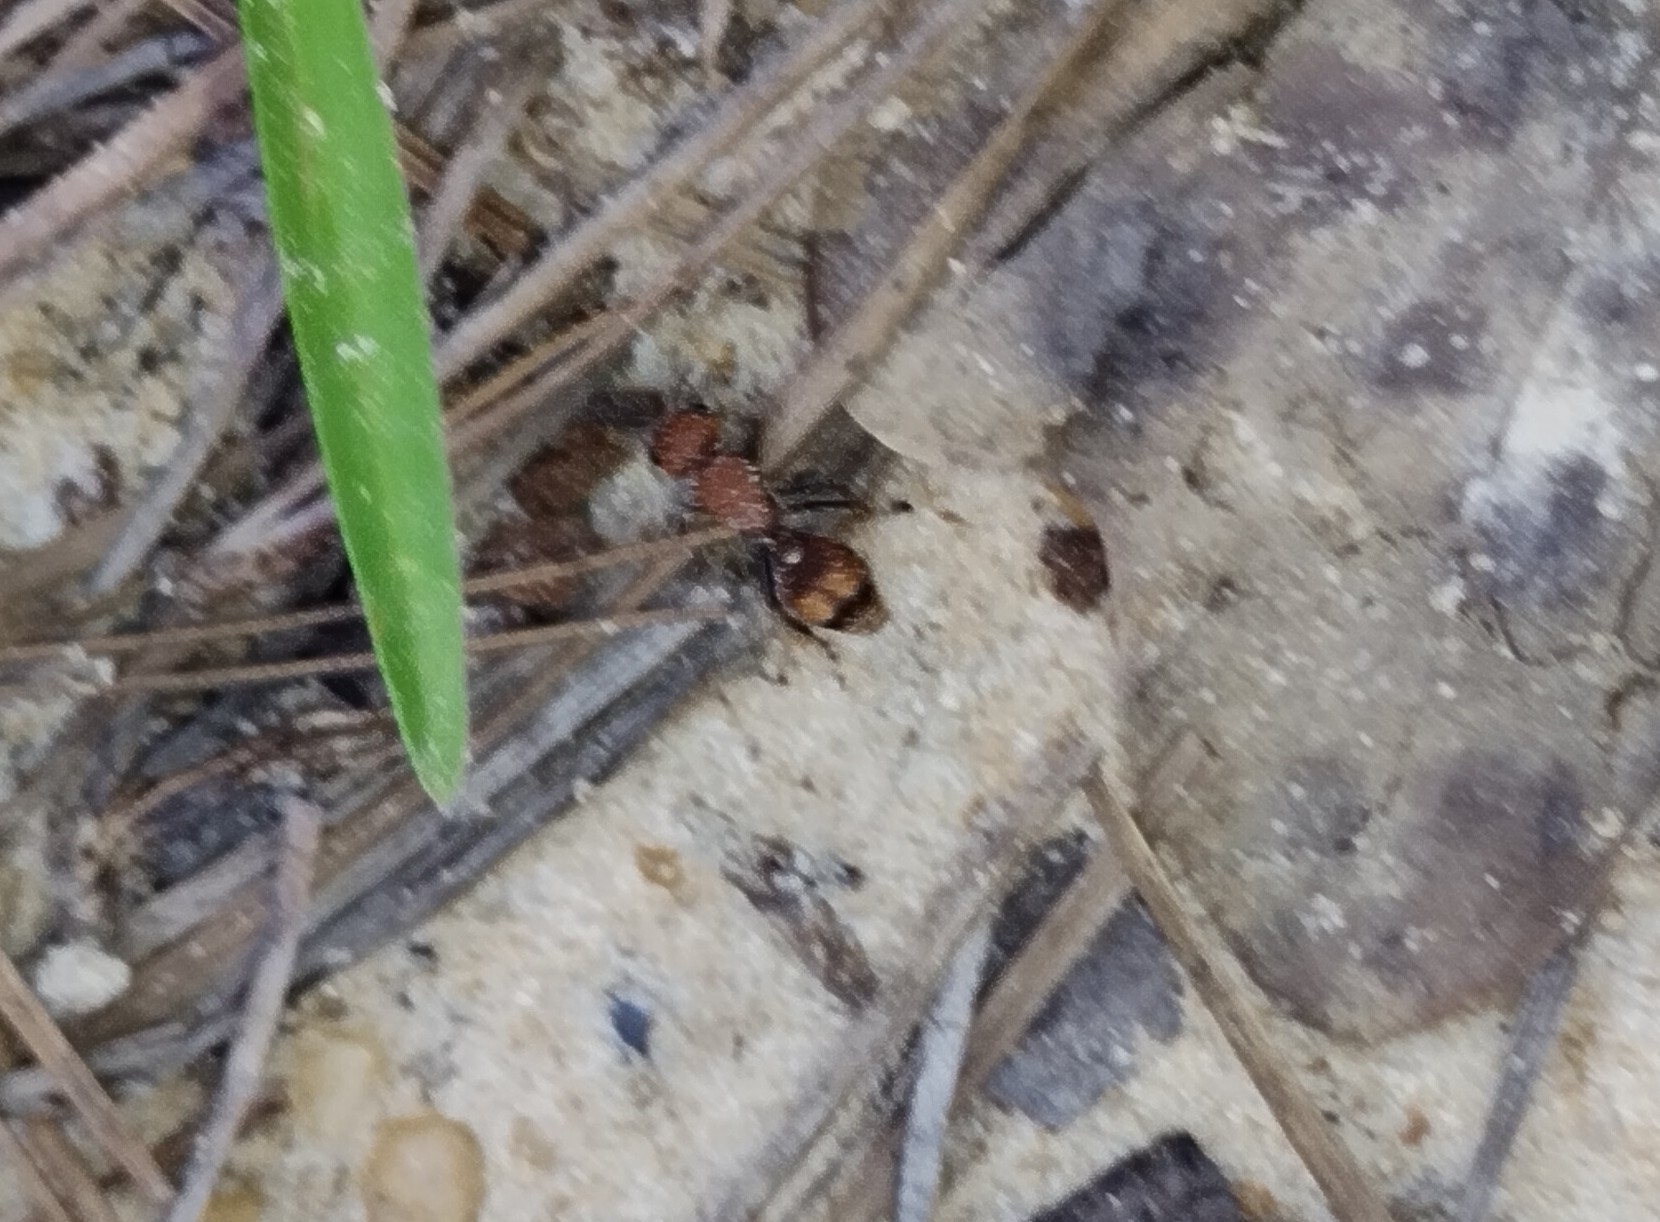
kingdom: Animalia
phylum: Arthropoda
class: Insecta
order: Hymenoptera
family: Mutillidae
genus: Dasymutilla
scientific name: Dasymutilla
